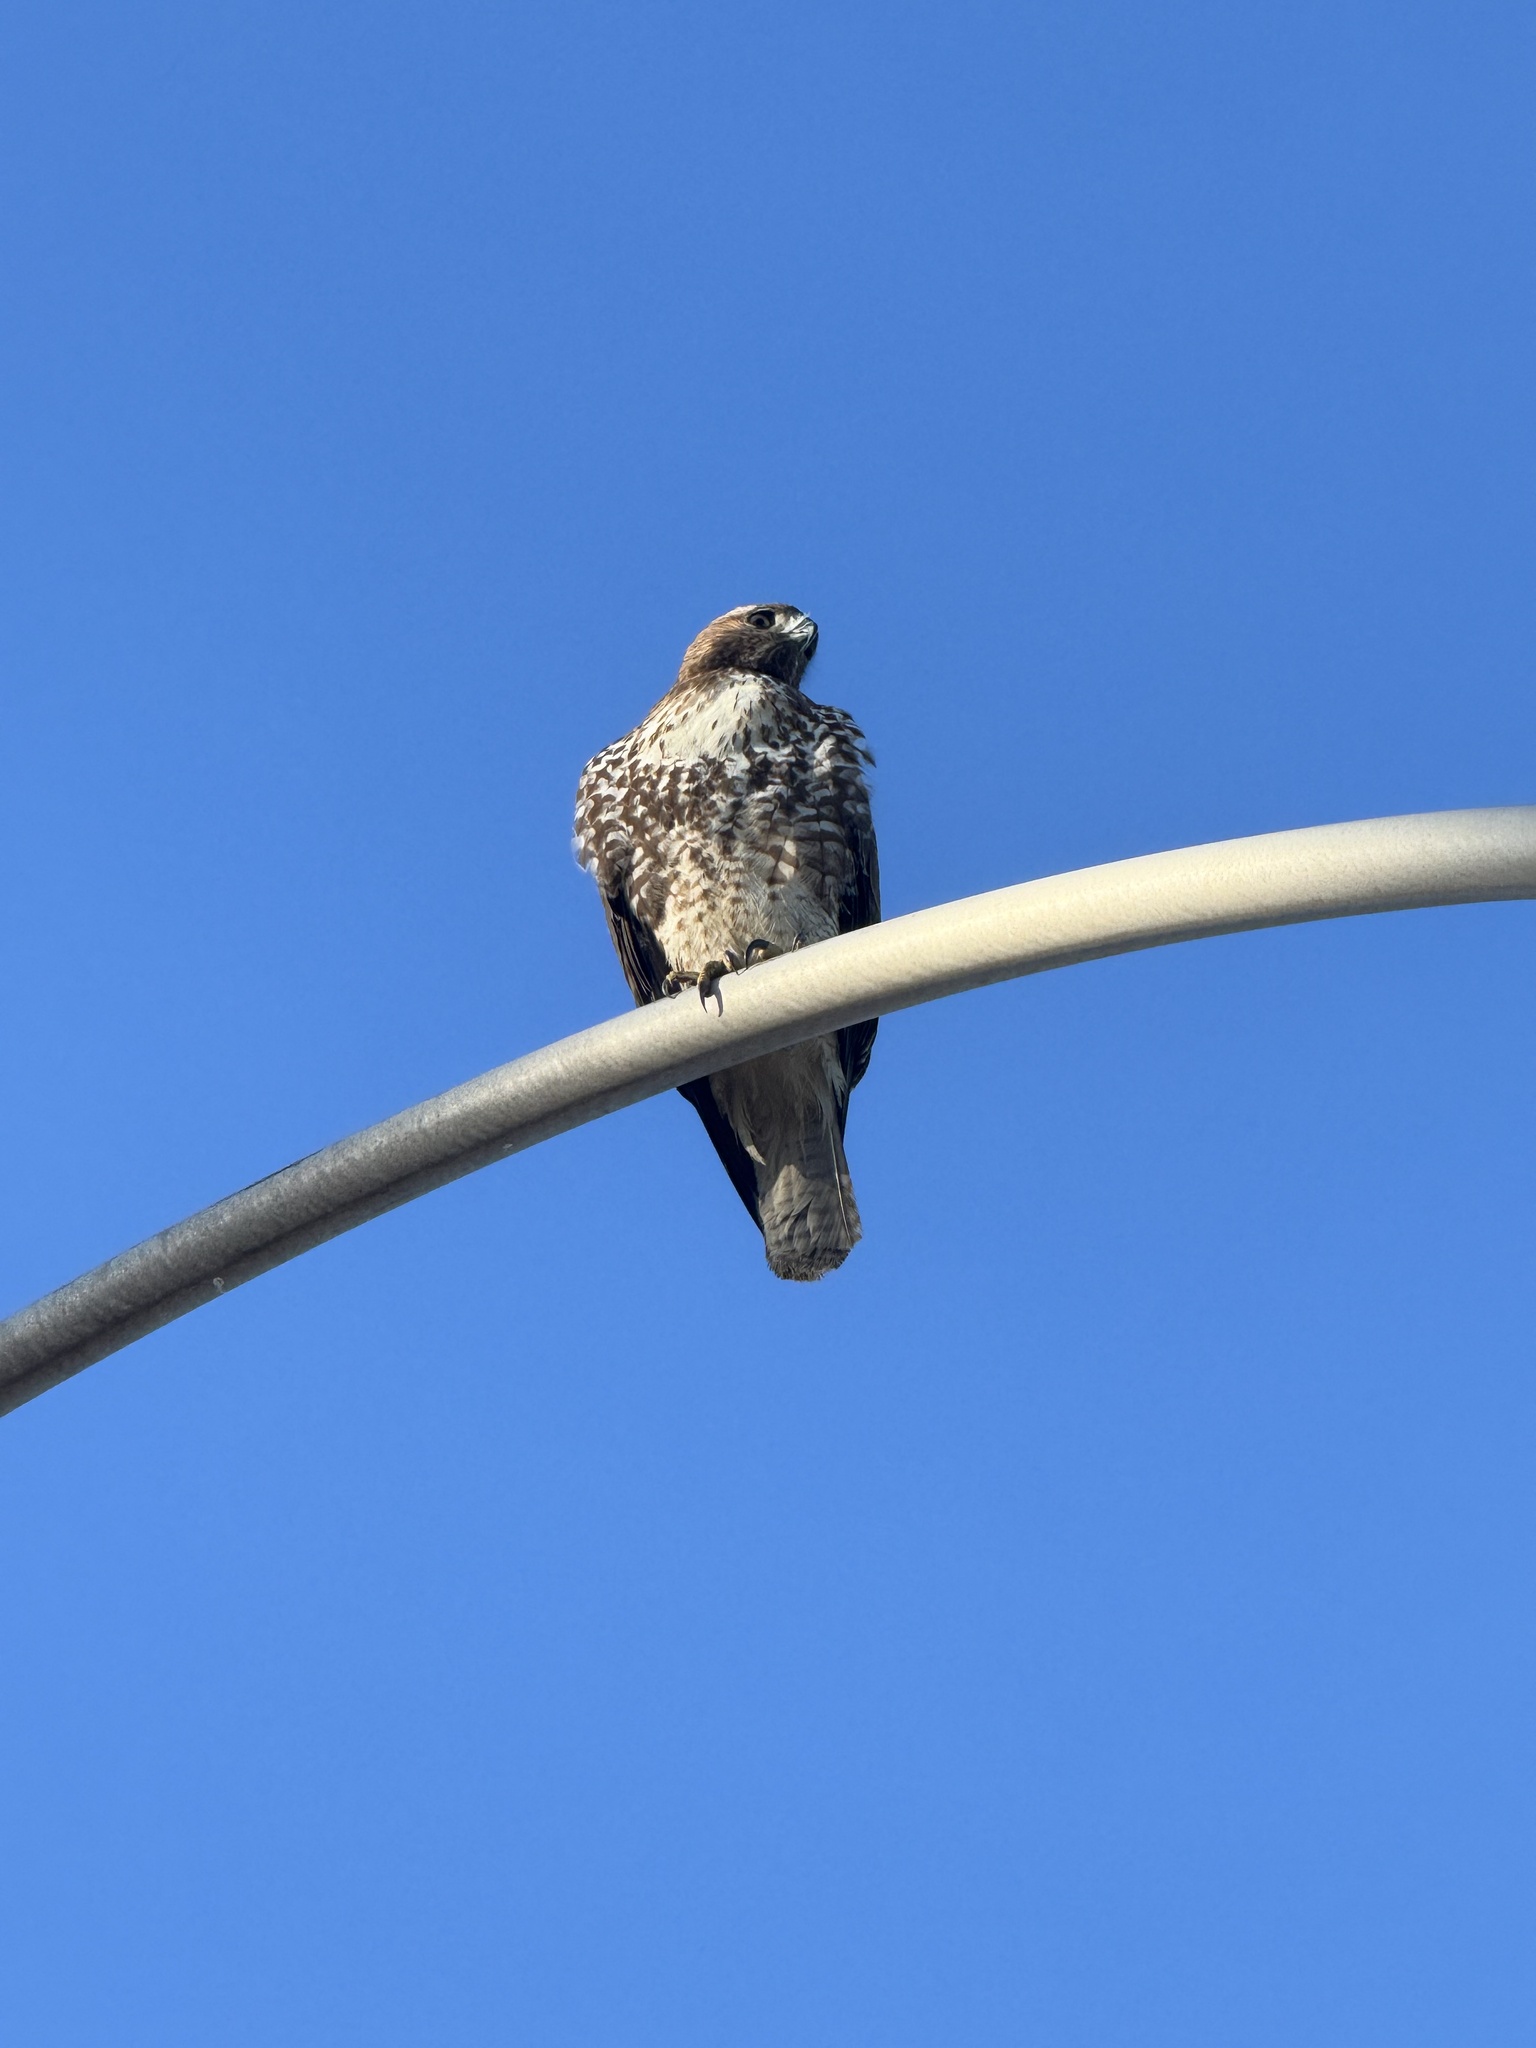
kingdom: Animalia
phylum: Chordata
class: Aves
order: Accipitriformes
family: Accipitridae
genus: Buteo
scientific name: Buteo jamaicensis
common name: Red-tailed hawk
